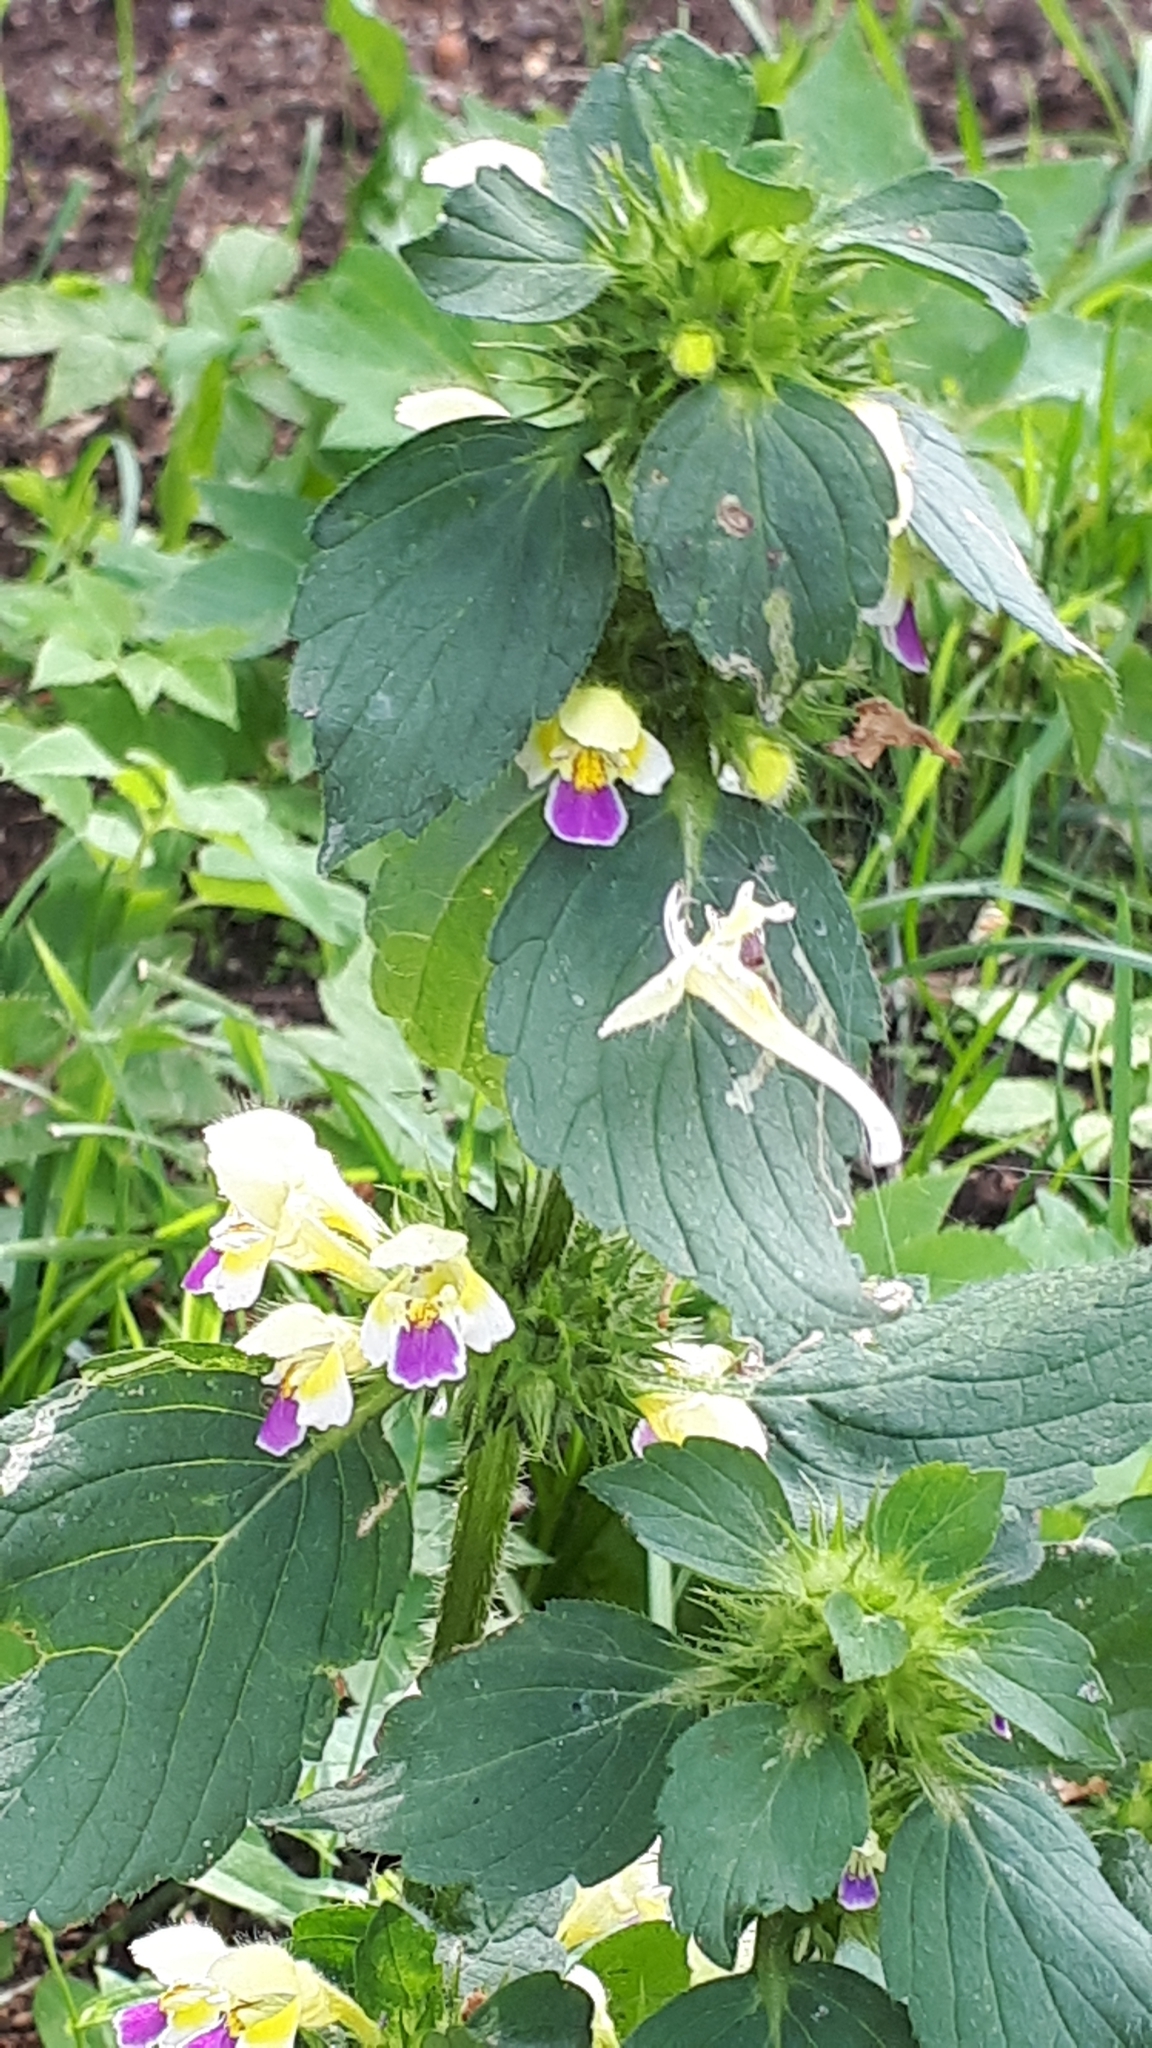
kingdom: Plantae
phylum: Tracheophyta
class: Magnoliopsida
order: Lamiales
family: Lamiaceae
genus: Galeopsis
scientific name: Galeopsis speciosa
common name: Large-flowered hemp-nettle
